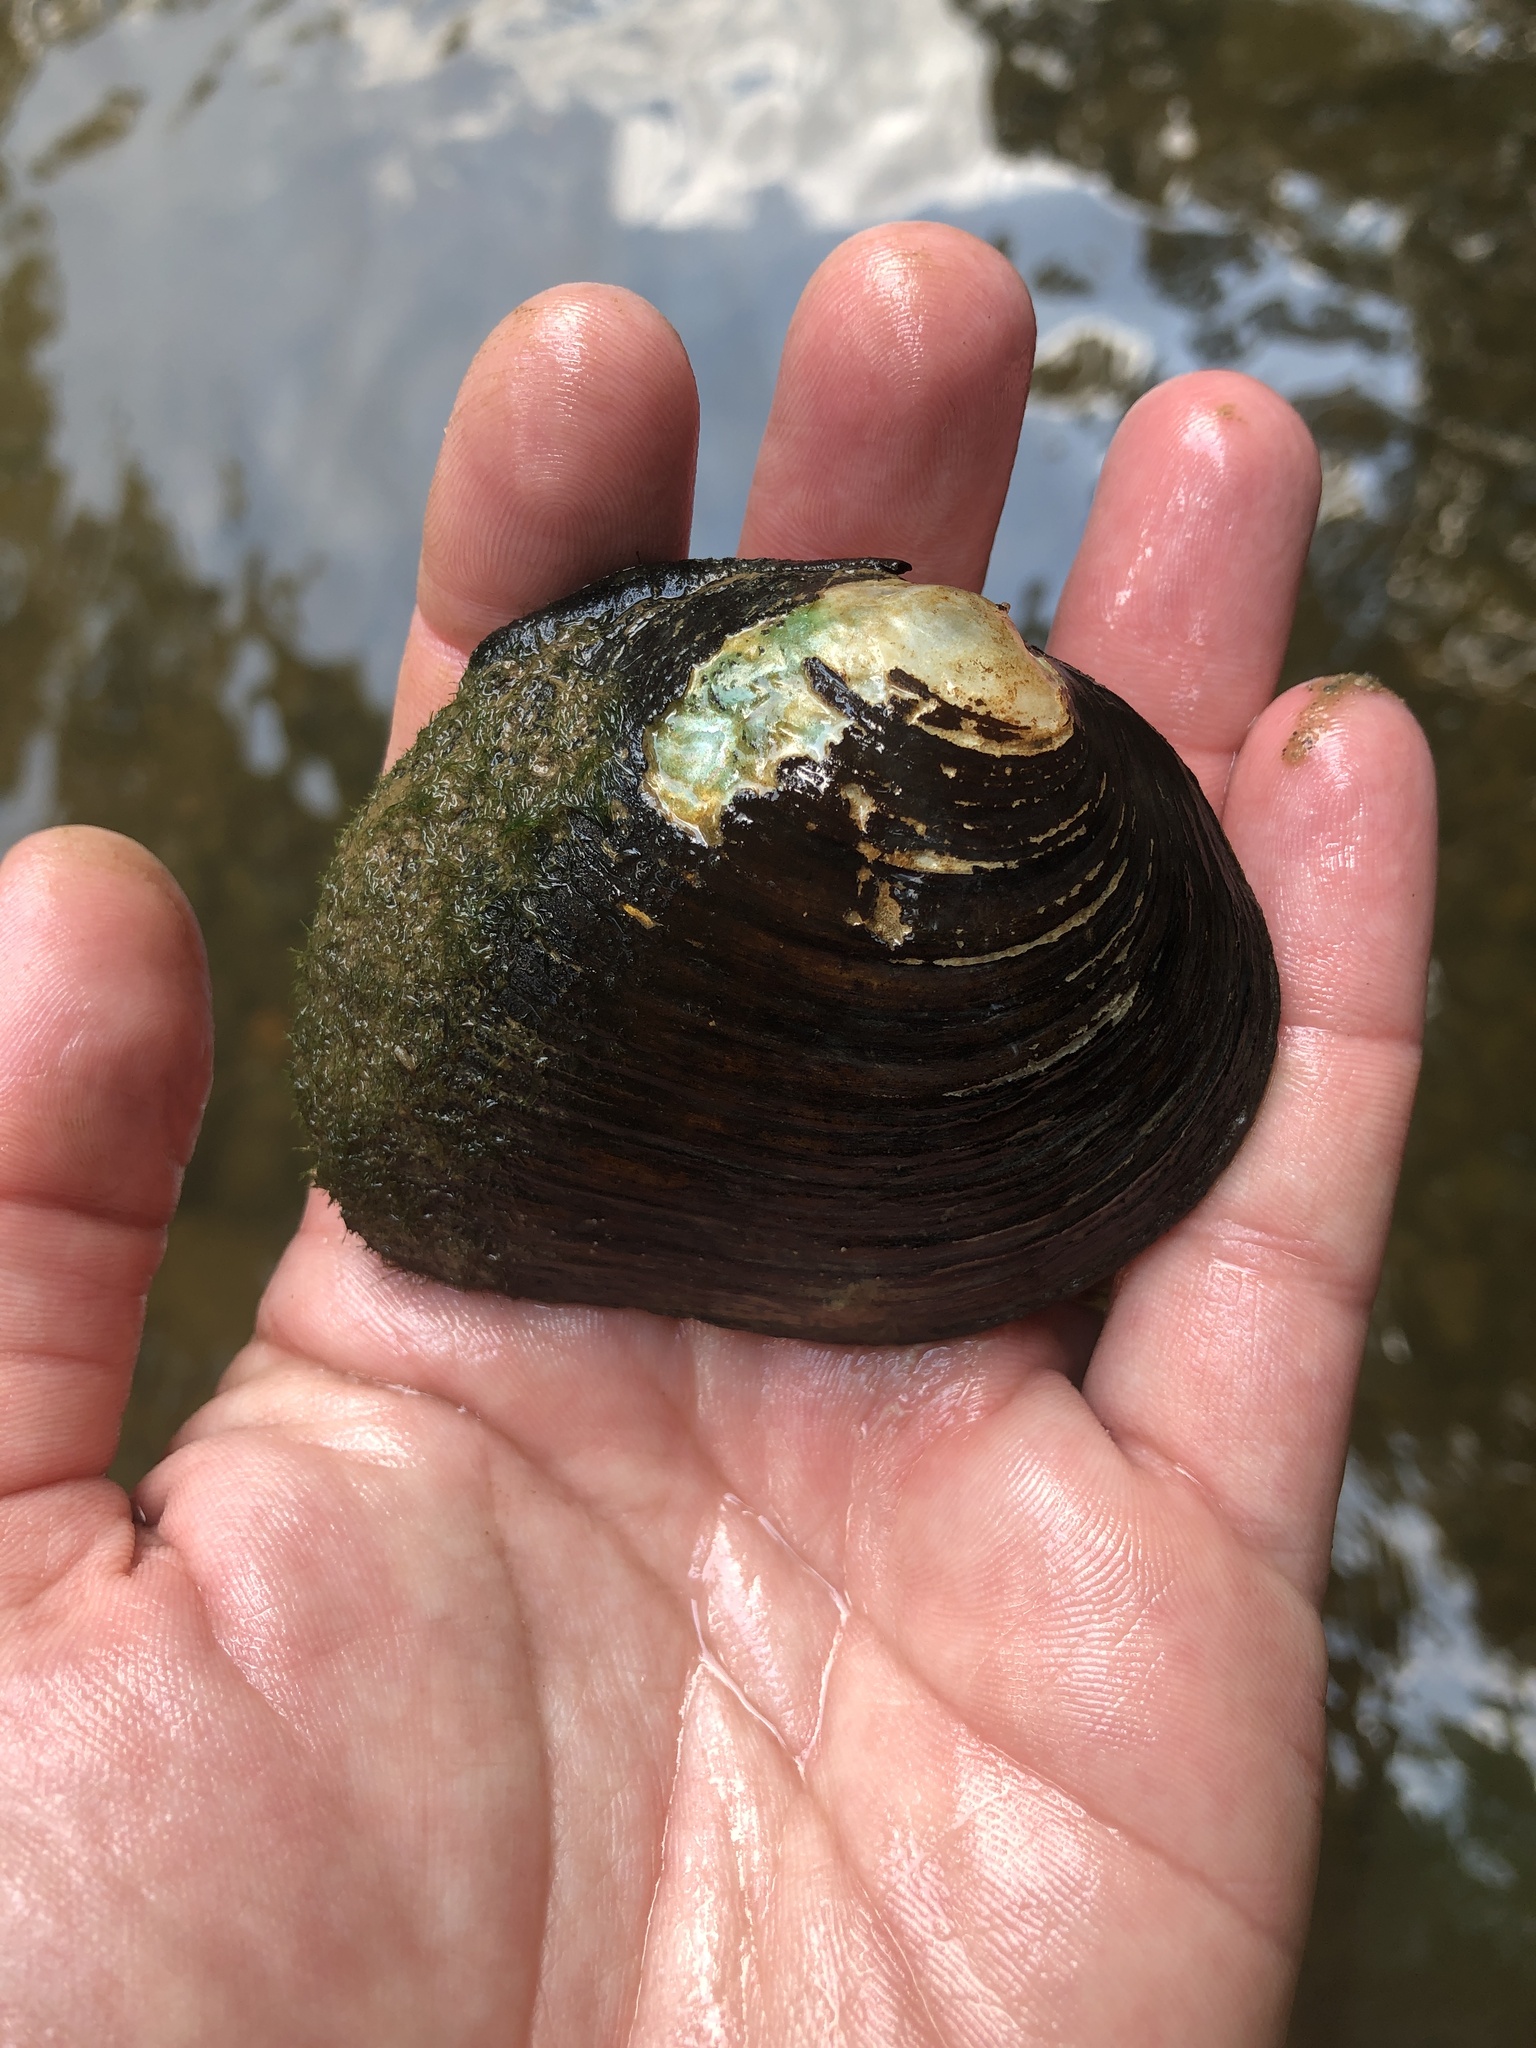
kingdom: Animalia
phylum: Mollusca
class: Bivalvia
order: Unionida
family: Unionidae
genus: Fusconaia
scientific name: Fusconaia flava
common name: Wabash pigtoe
